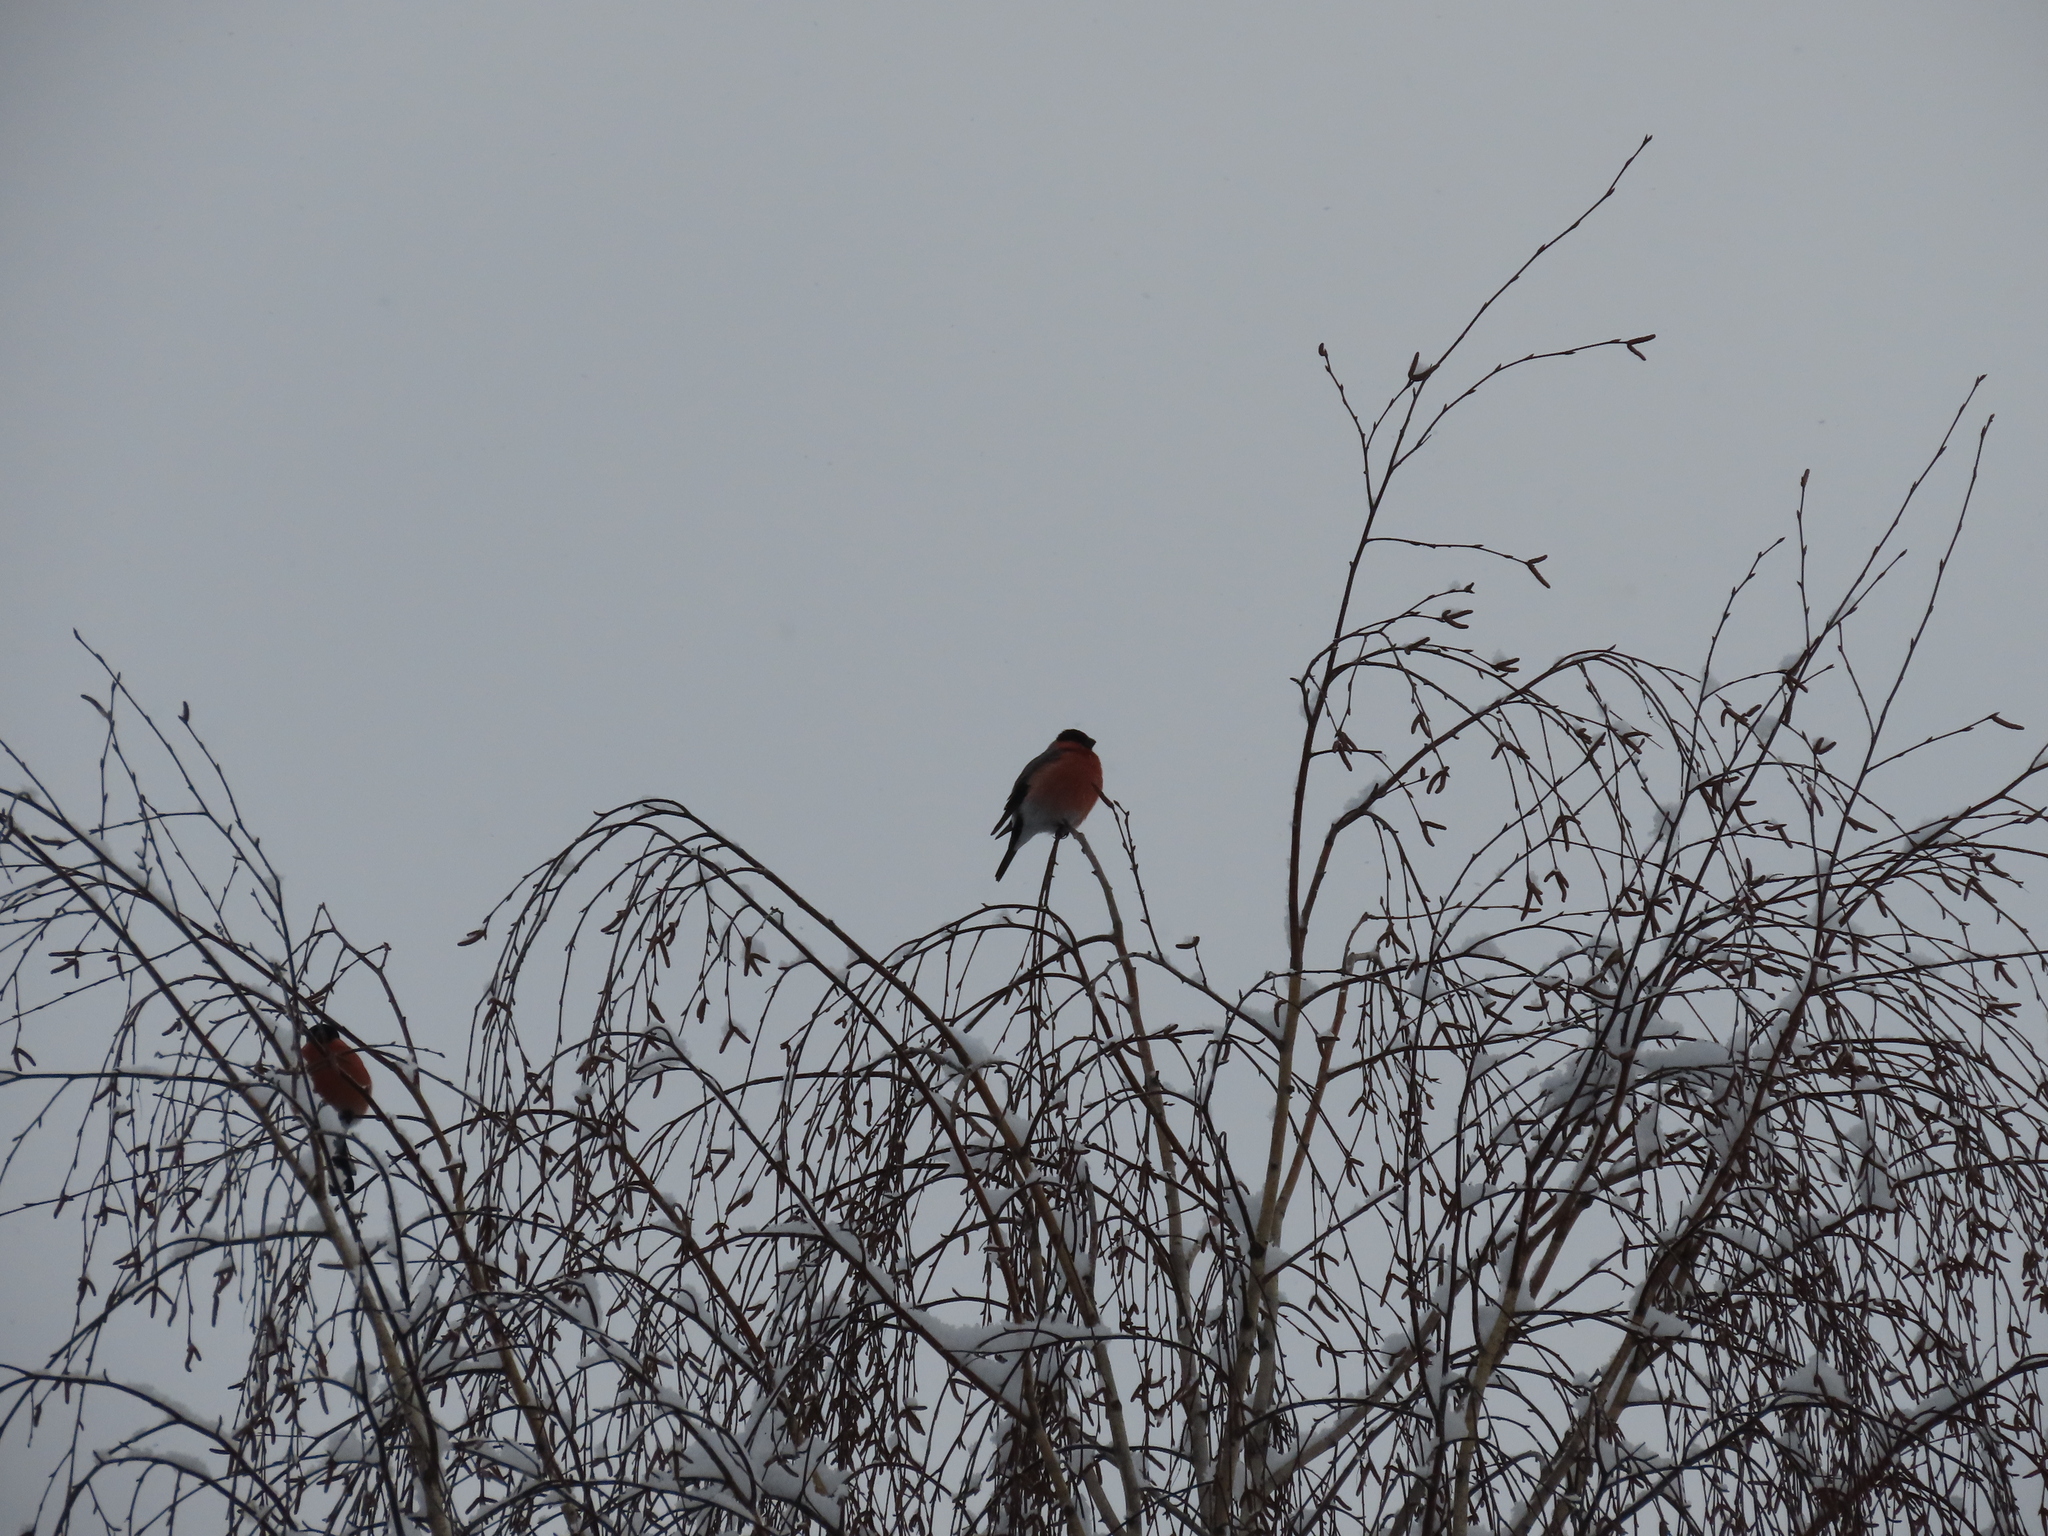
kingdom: Animalia
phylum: Chordata
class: Aves
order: Passeriformes
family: Fringillidae
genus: Pyrrhula
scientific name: Pyrrhula pyrrhula
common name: Eurasian bullfinch
